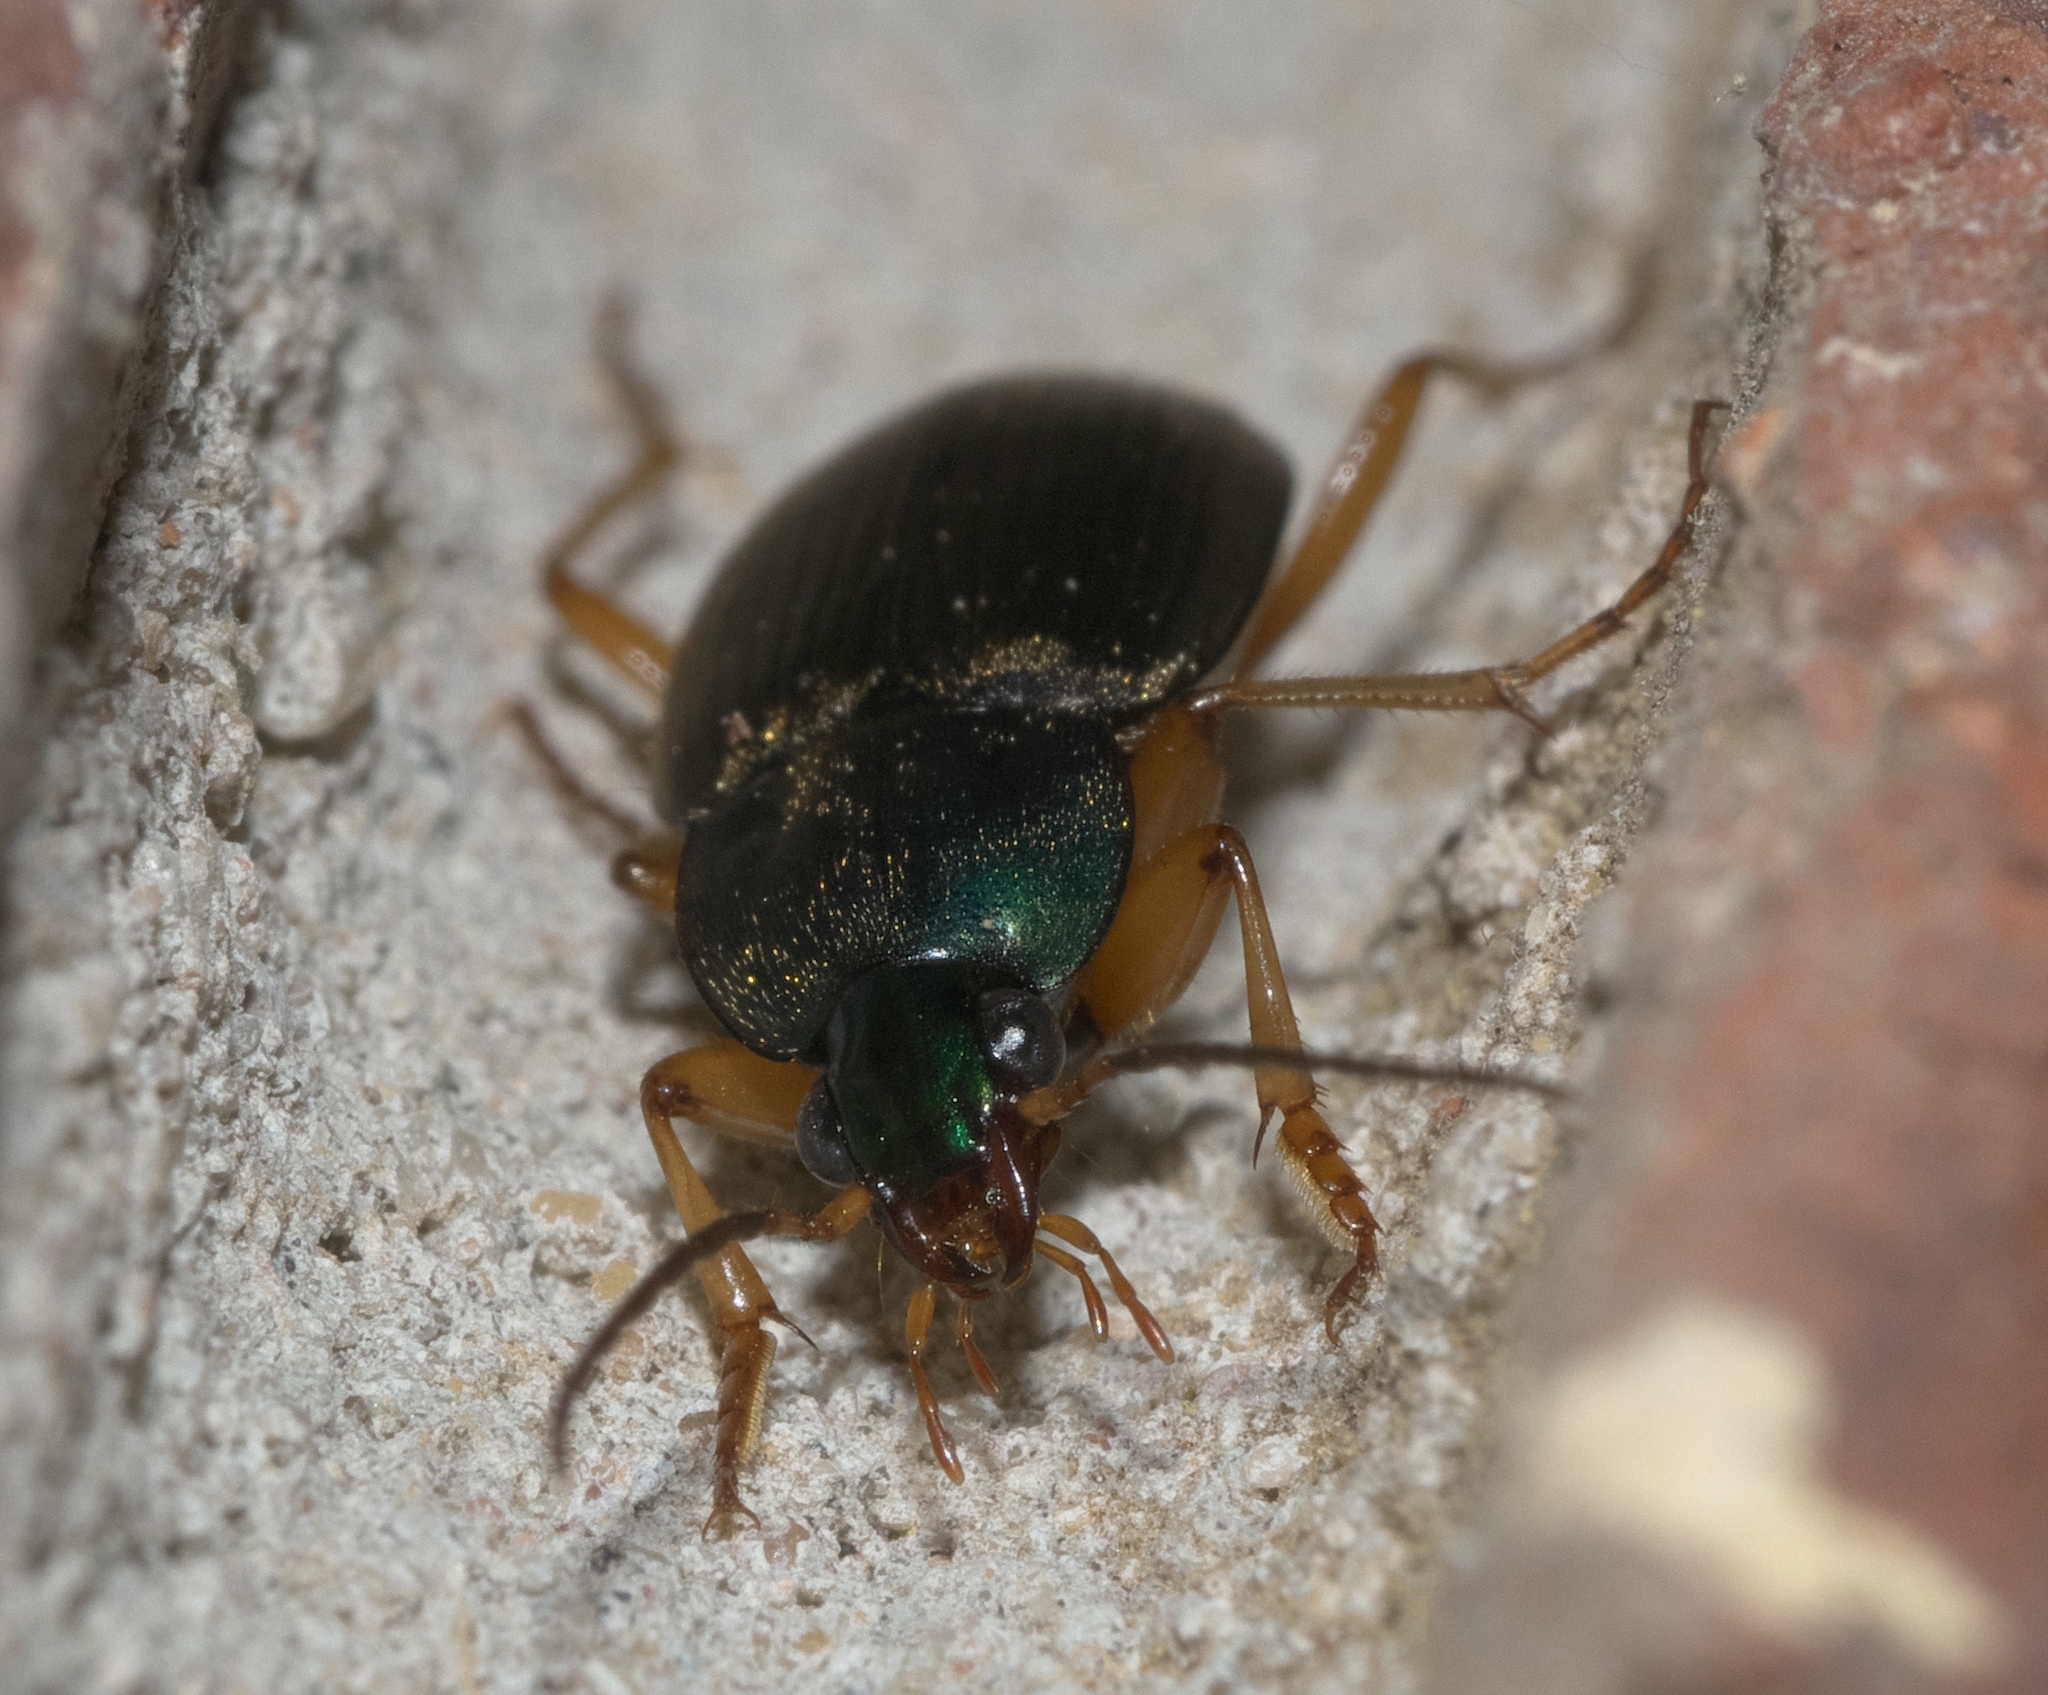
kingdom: Animalia
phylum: Arthropoda
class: Insecta
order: Coleoptera
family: Carabidae
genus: Chlaenius
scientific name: Chlaenius impunctifrons
